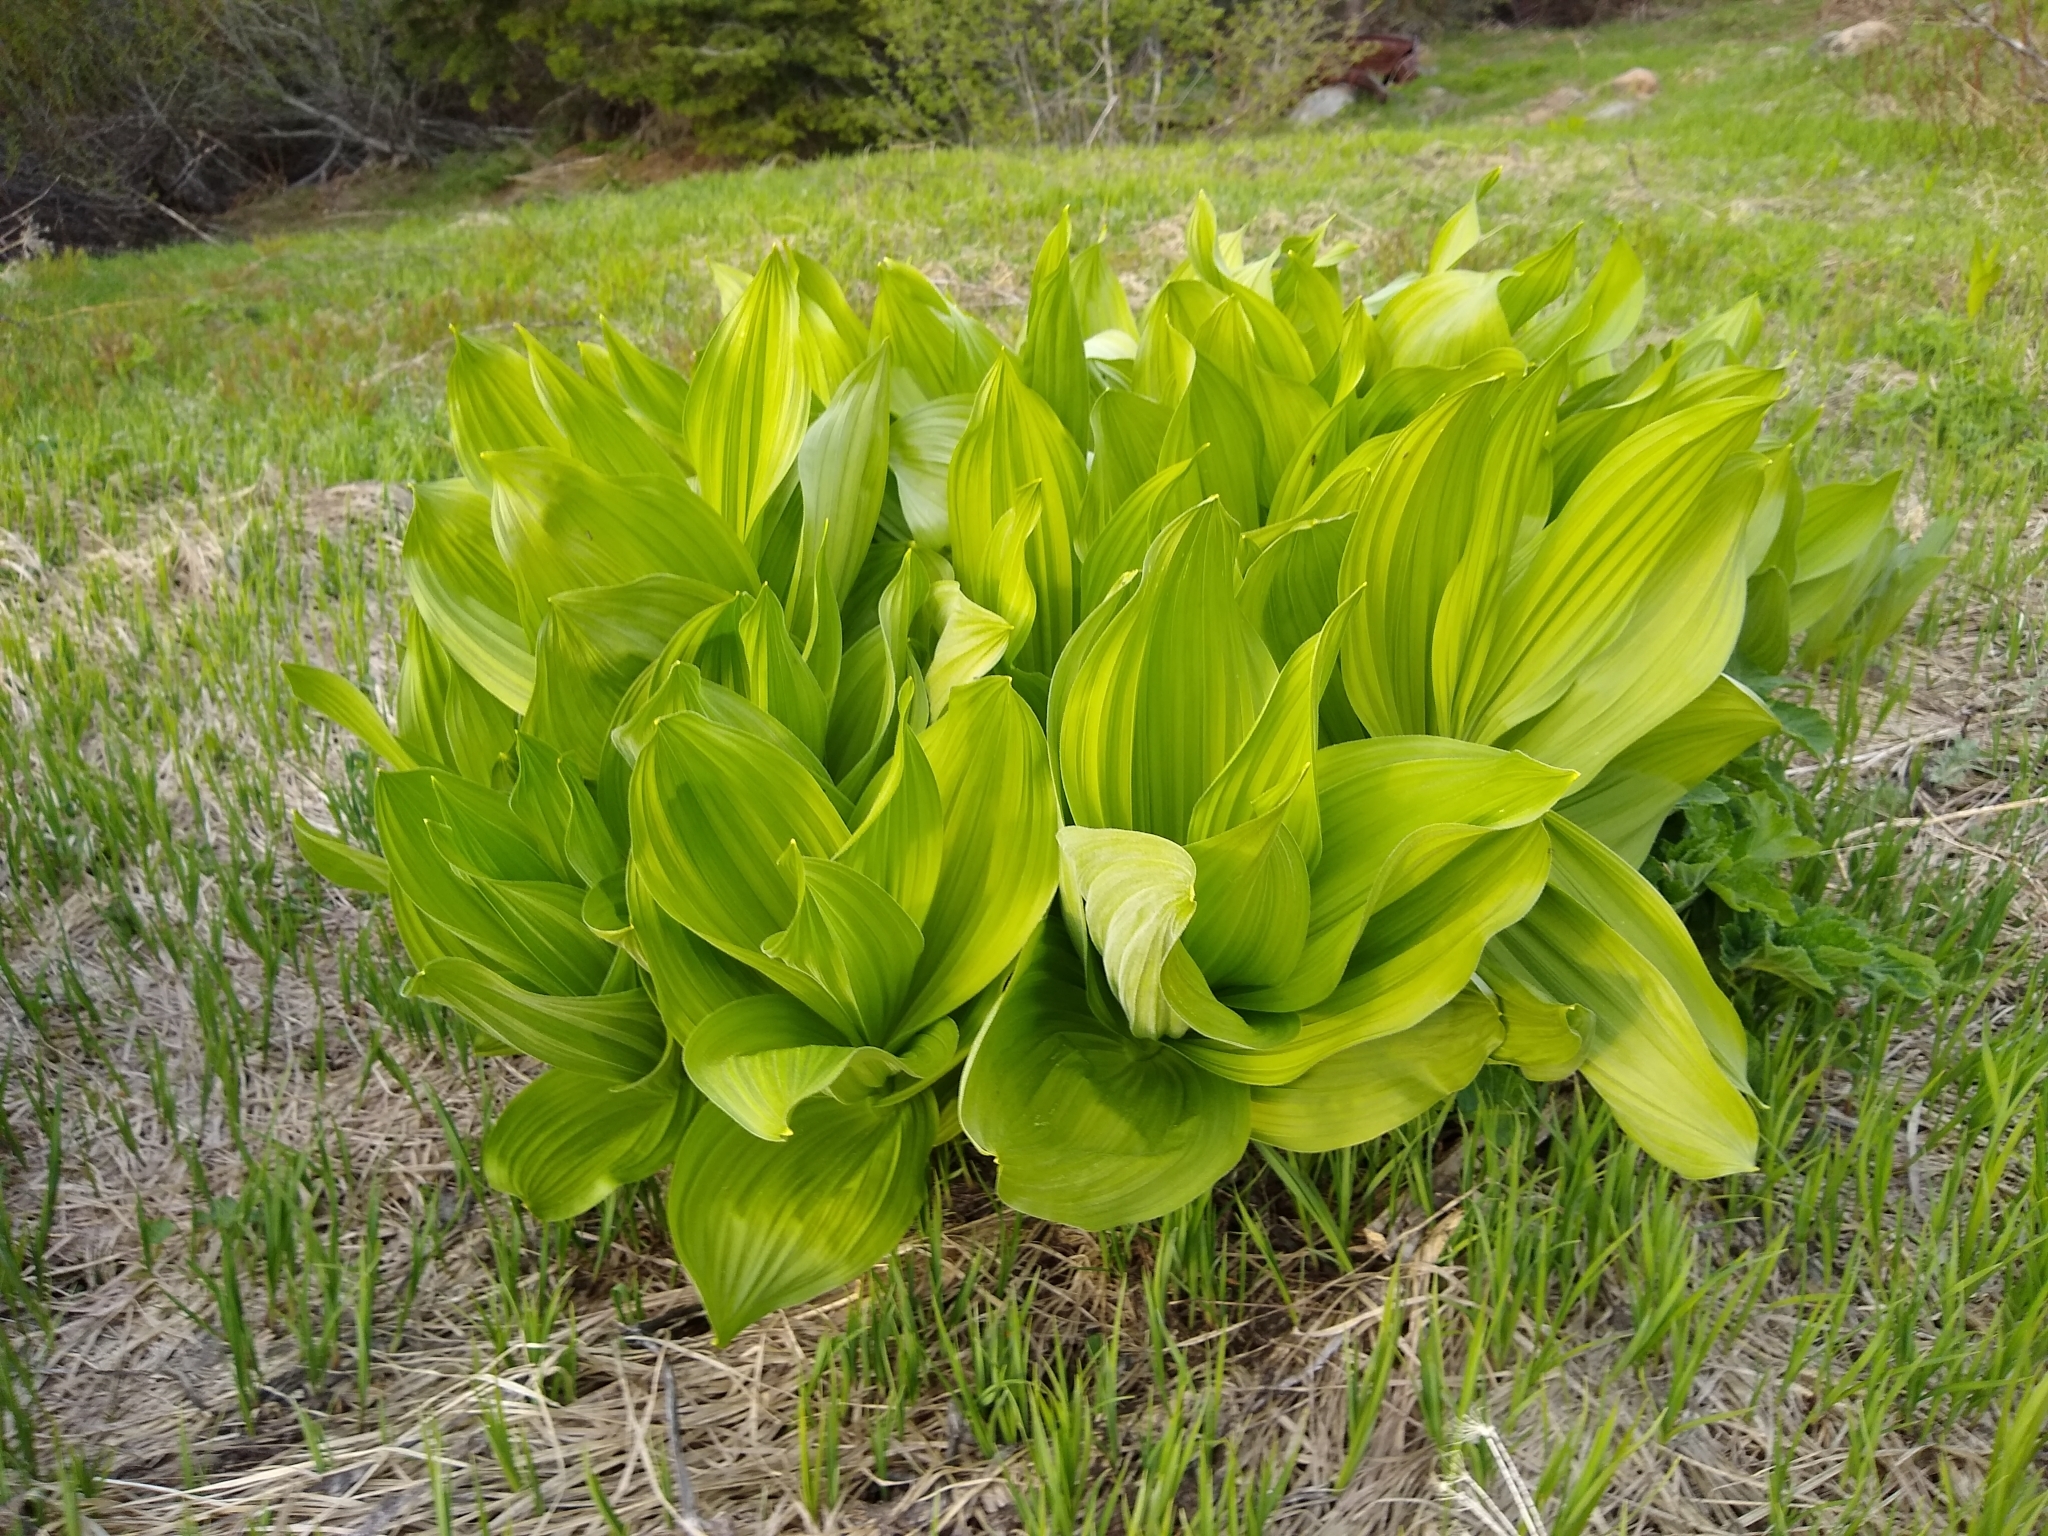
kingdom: Plantae
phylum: Tracheophyta
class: Liliopsida
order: Liliales
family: Melanthiaceae
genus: Veratrum
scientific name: Veratrum californicum
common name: California veratrum
